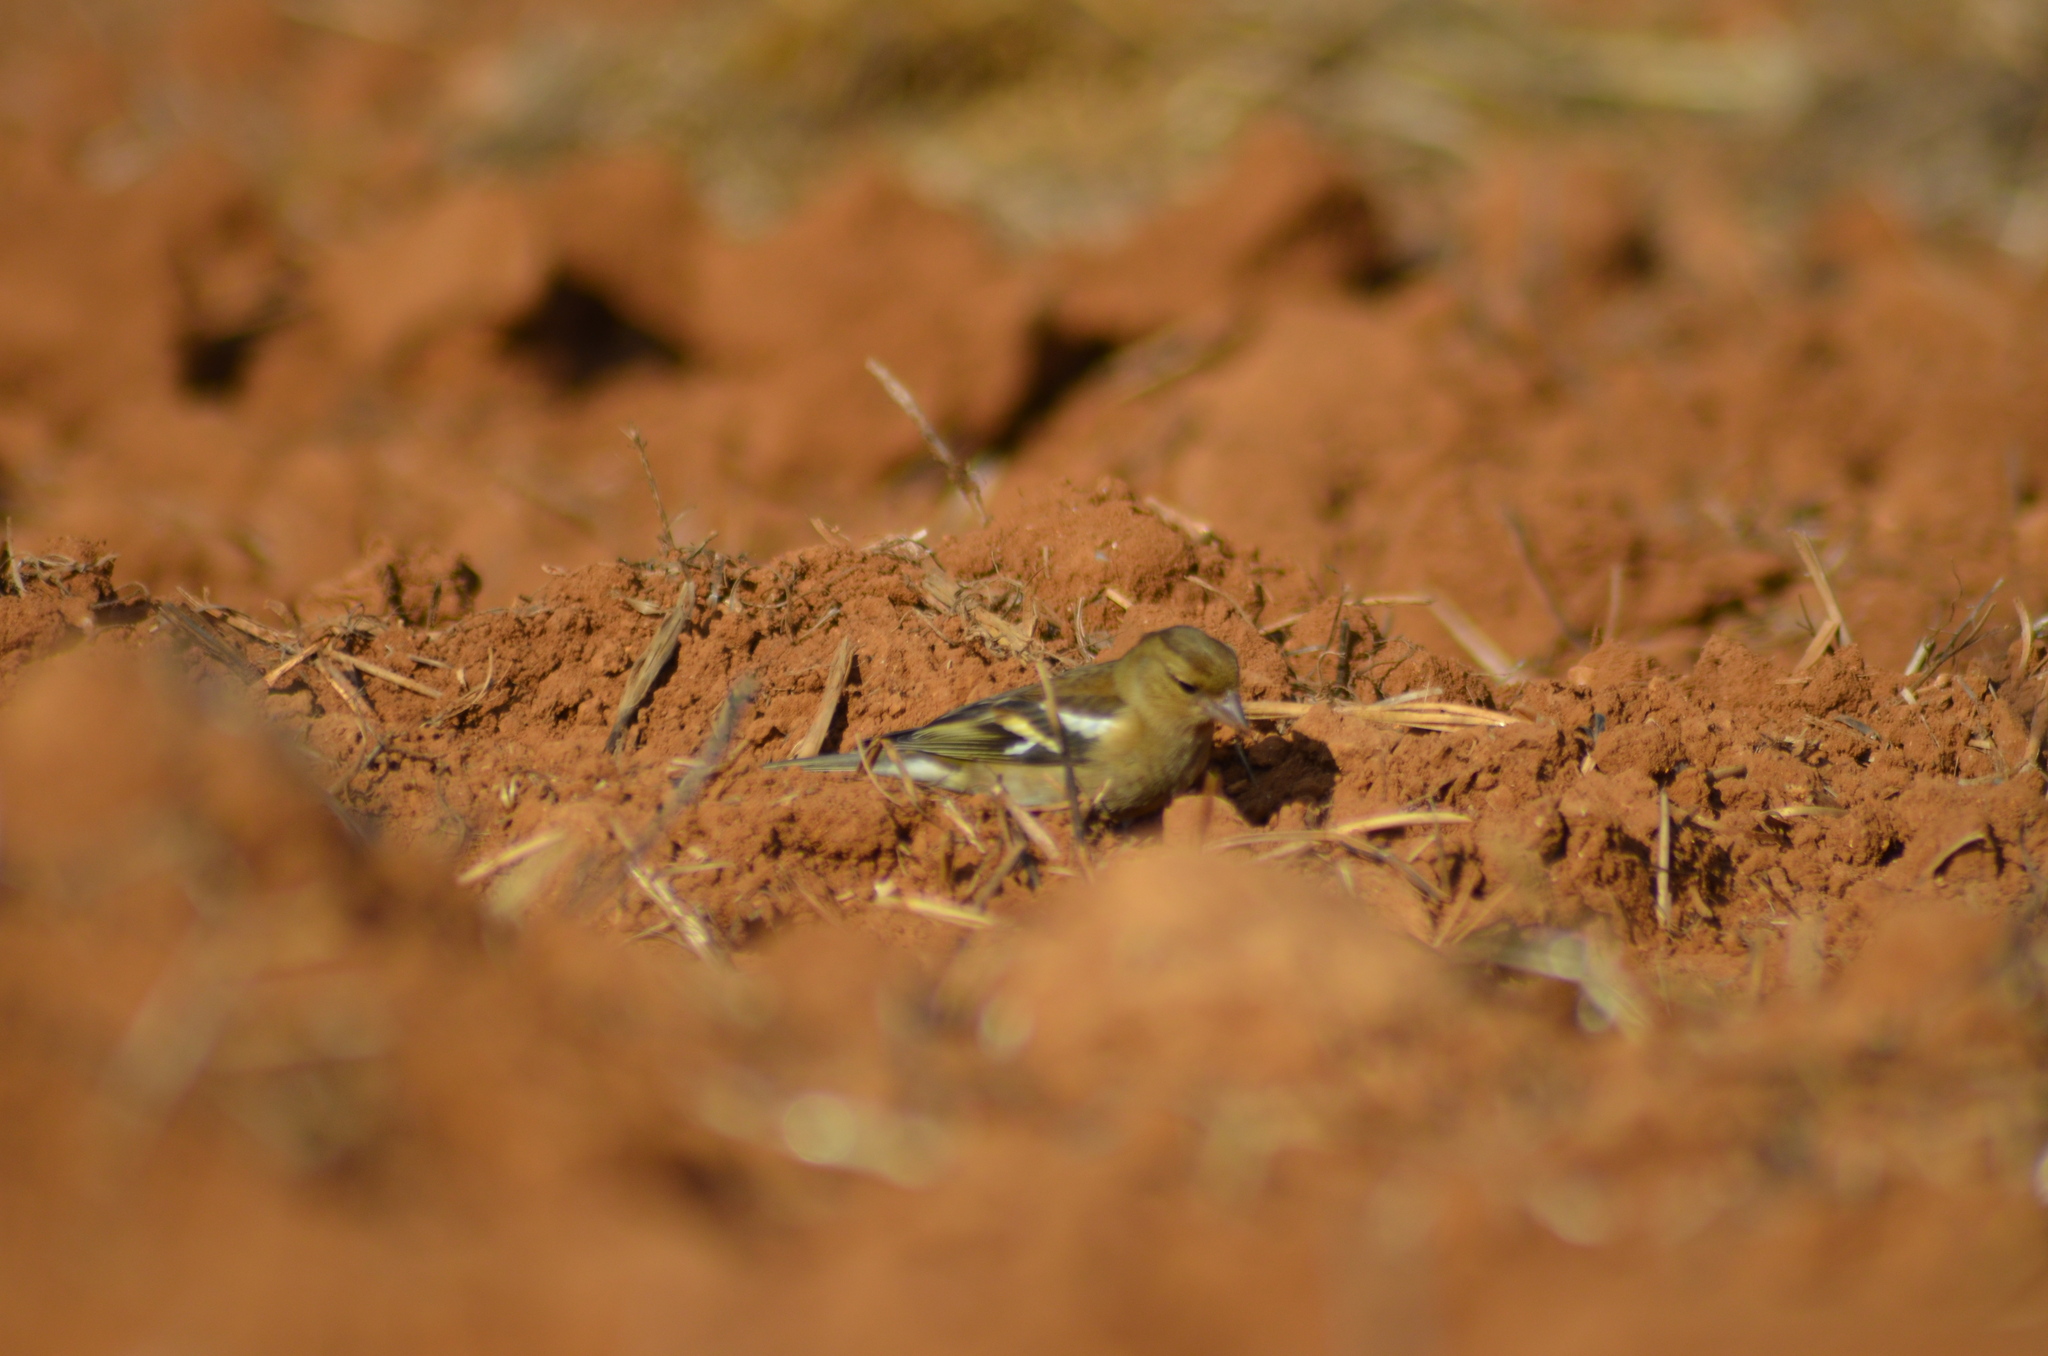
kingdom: Animalia
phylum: Chordata
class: Aves
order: Passeriformes
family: Fringillidae
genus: Fringilla
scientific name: Fringilla coelebs
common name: Common chaffinch
